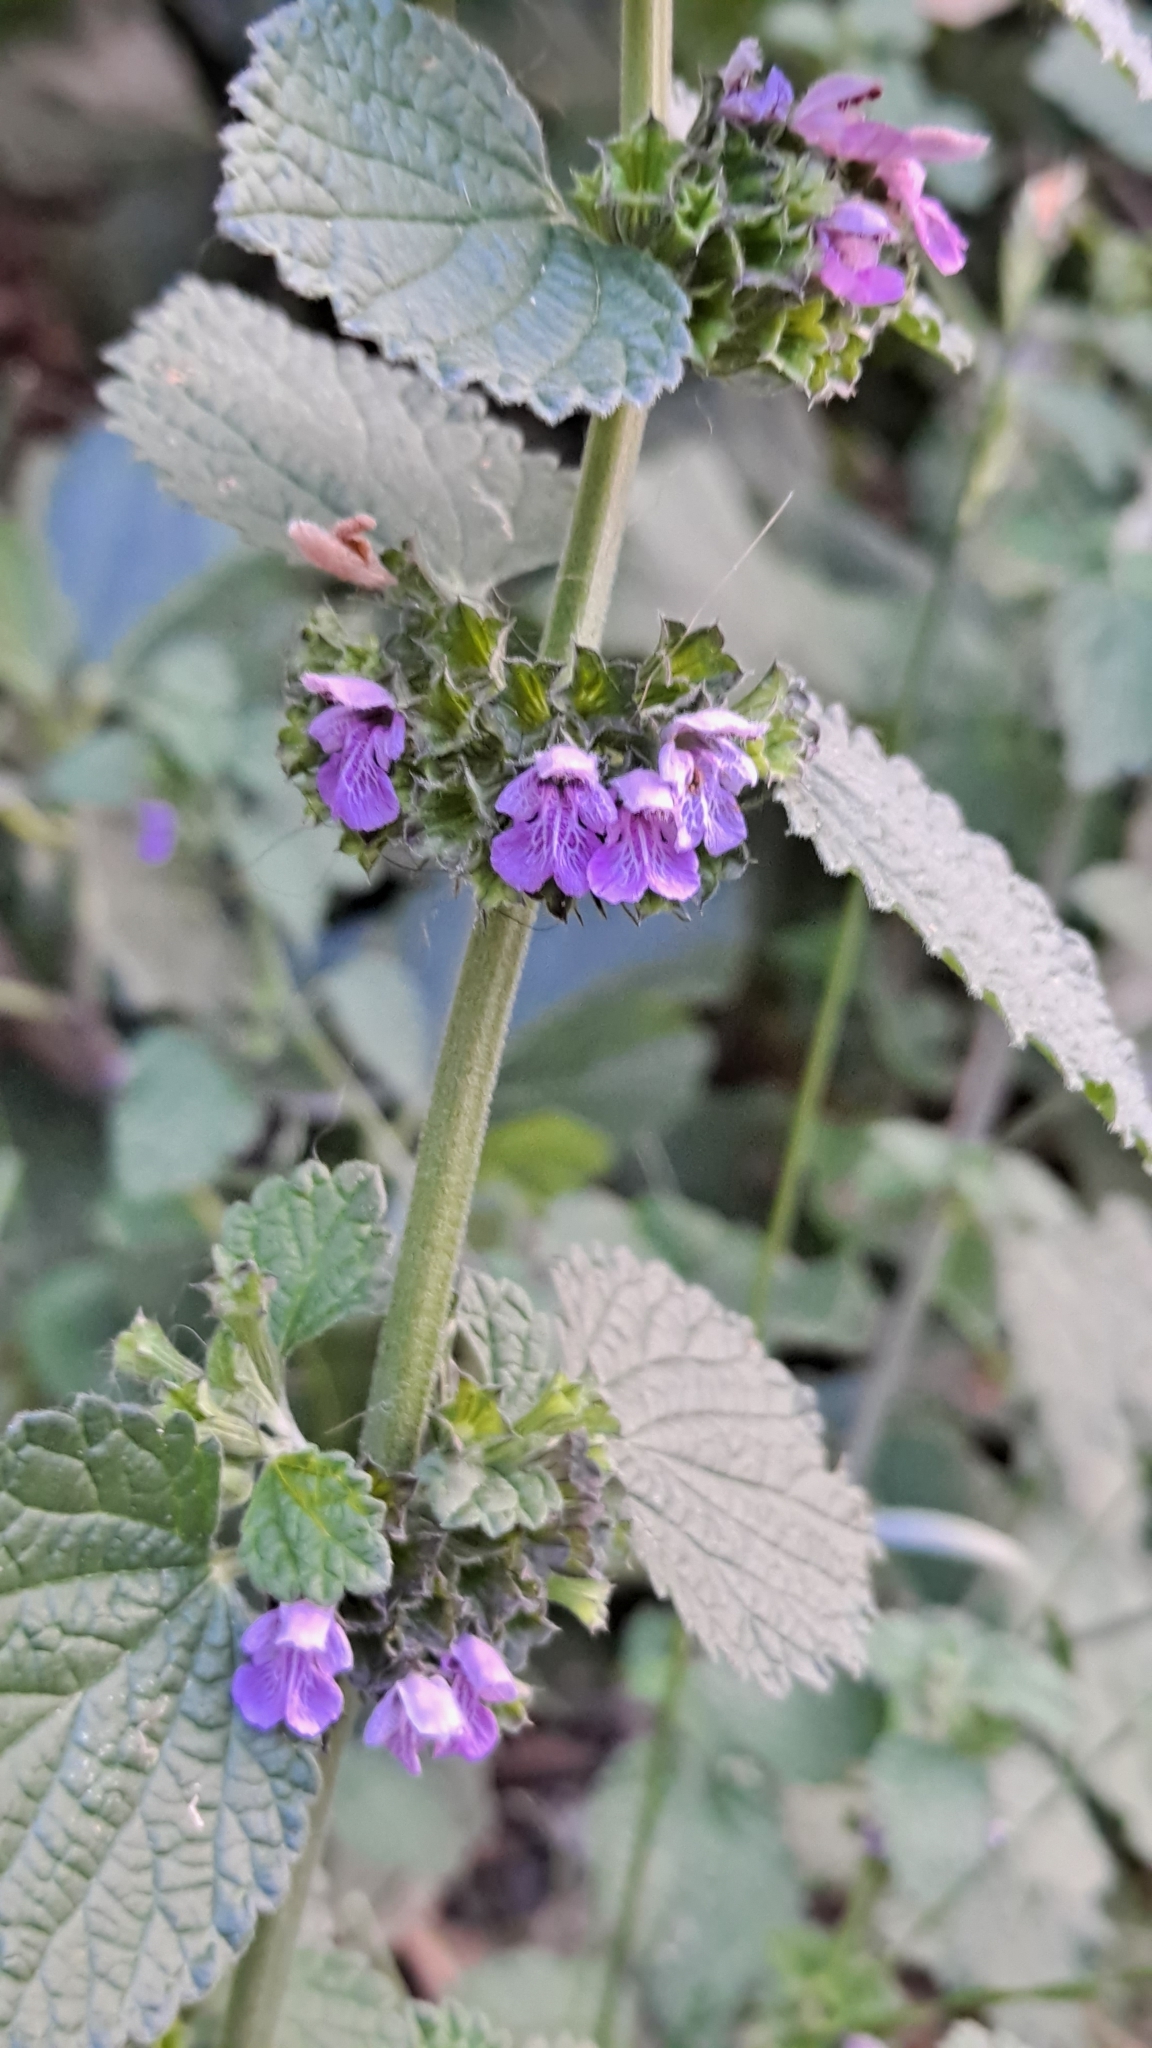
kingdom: Plantae
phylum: Tracheophyta
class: Magnoliopsida
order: Lamiales
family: Lamiaceae
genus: Ballota
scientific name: Ballota nigra
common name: Black horehound
